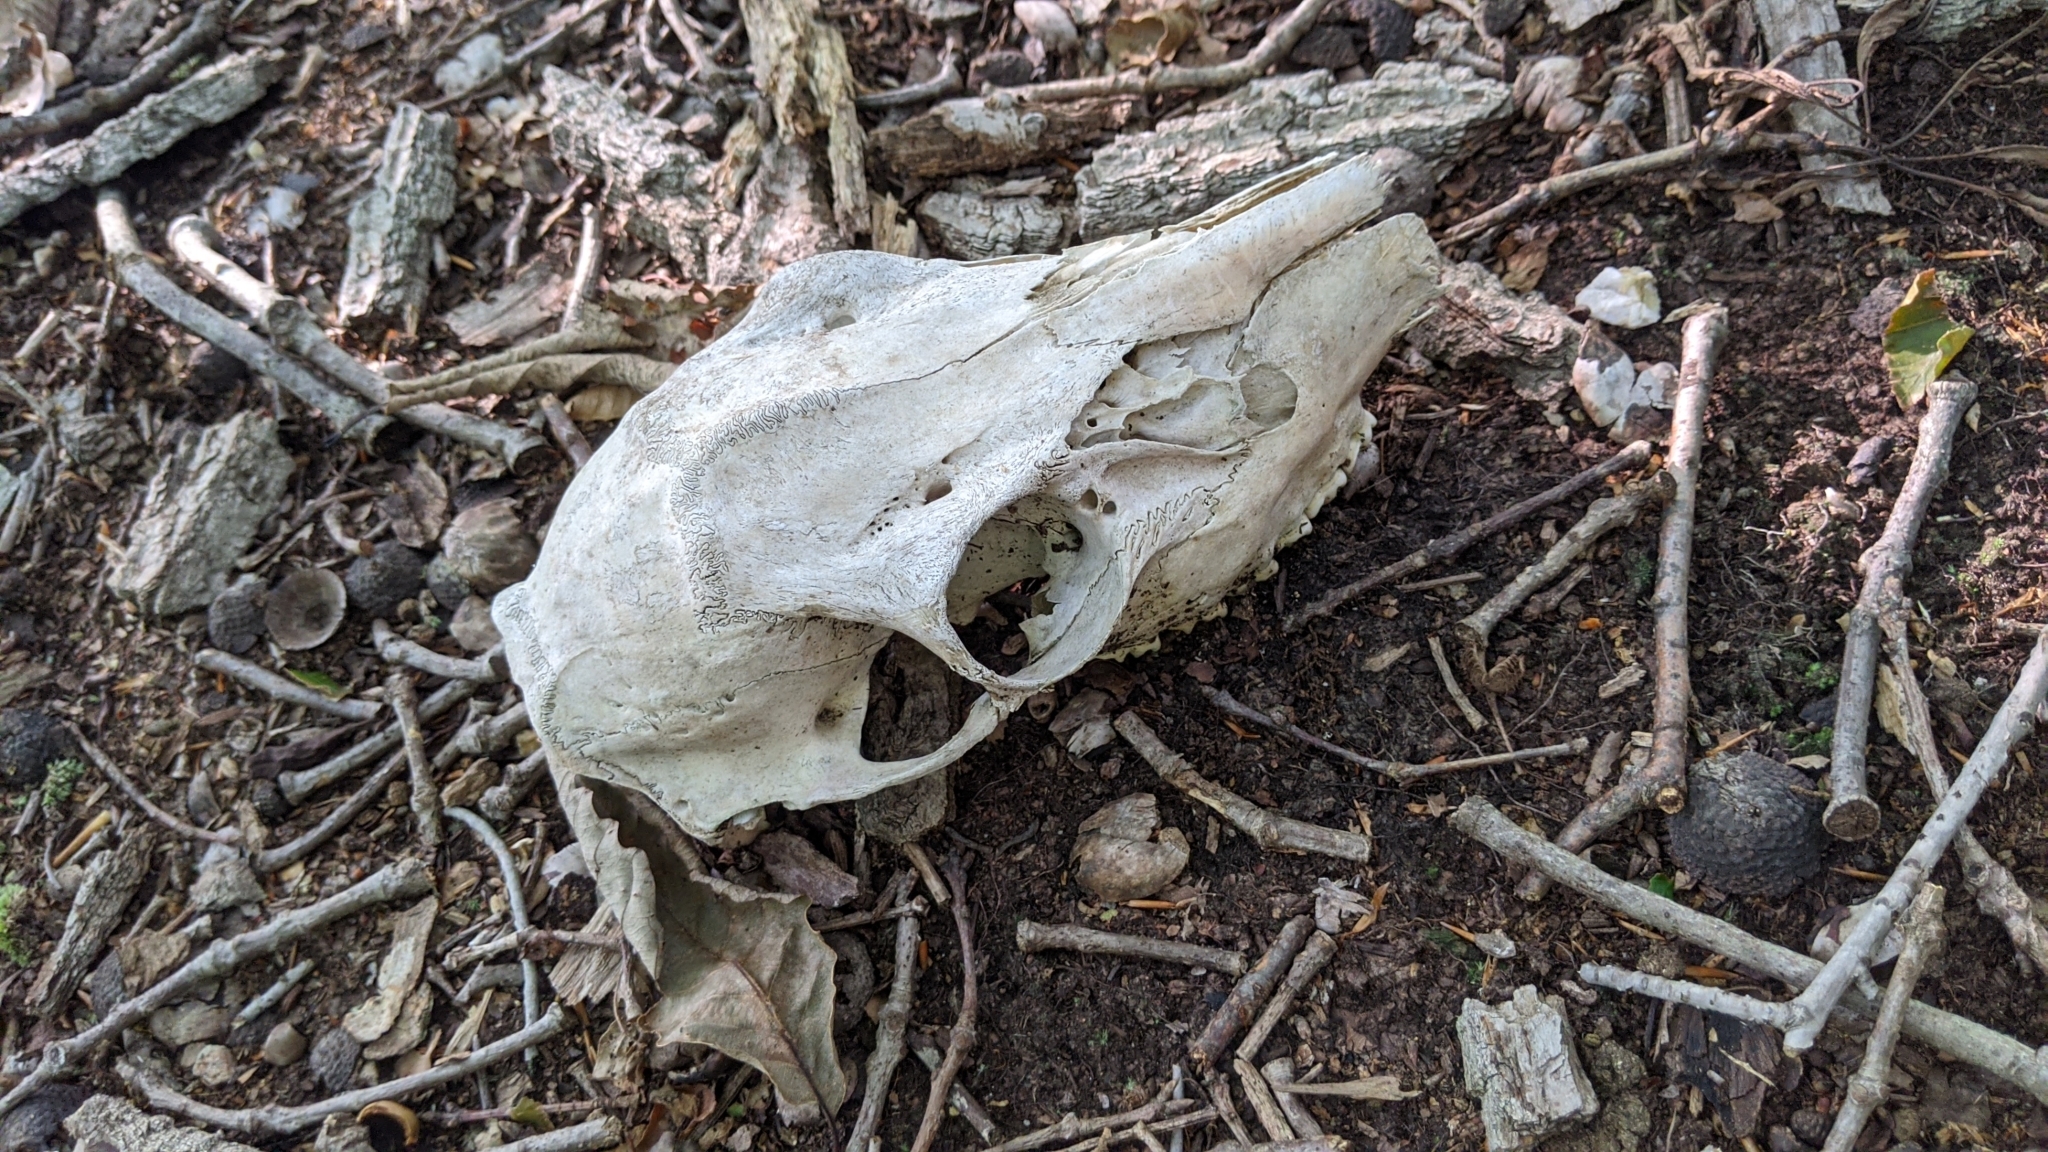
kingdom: Animalia
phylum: Chordata
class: Mammalia
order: Artiodactyla
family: Cervidae
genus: Odocoileus
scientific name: Odocoileus virginianus
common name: White-tailed deer
